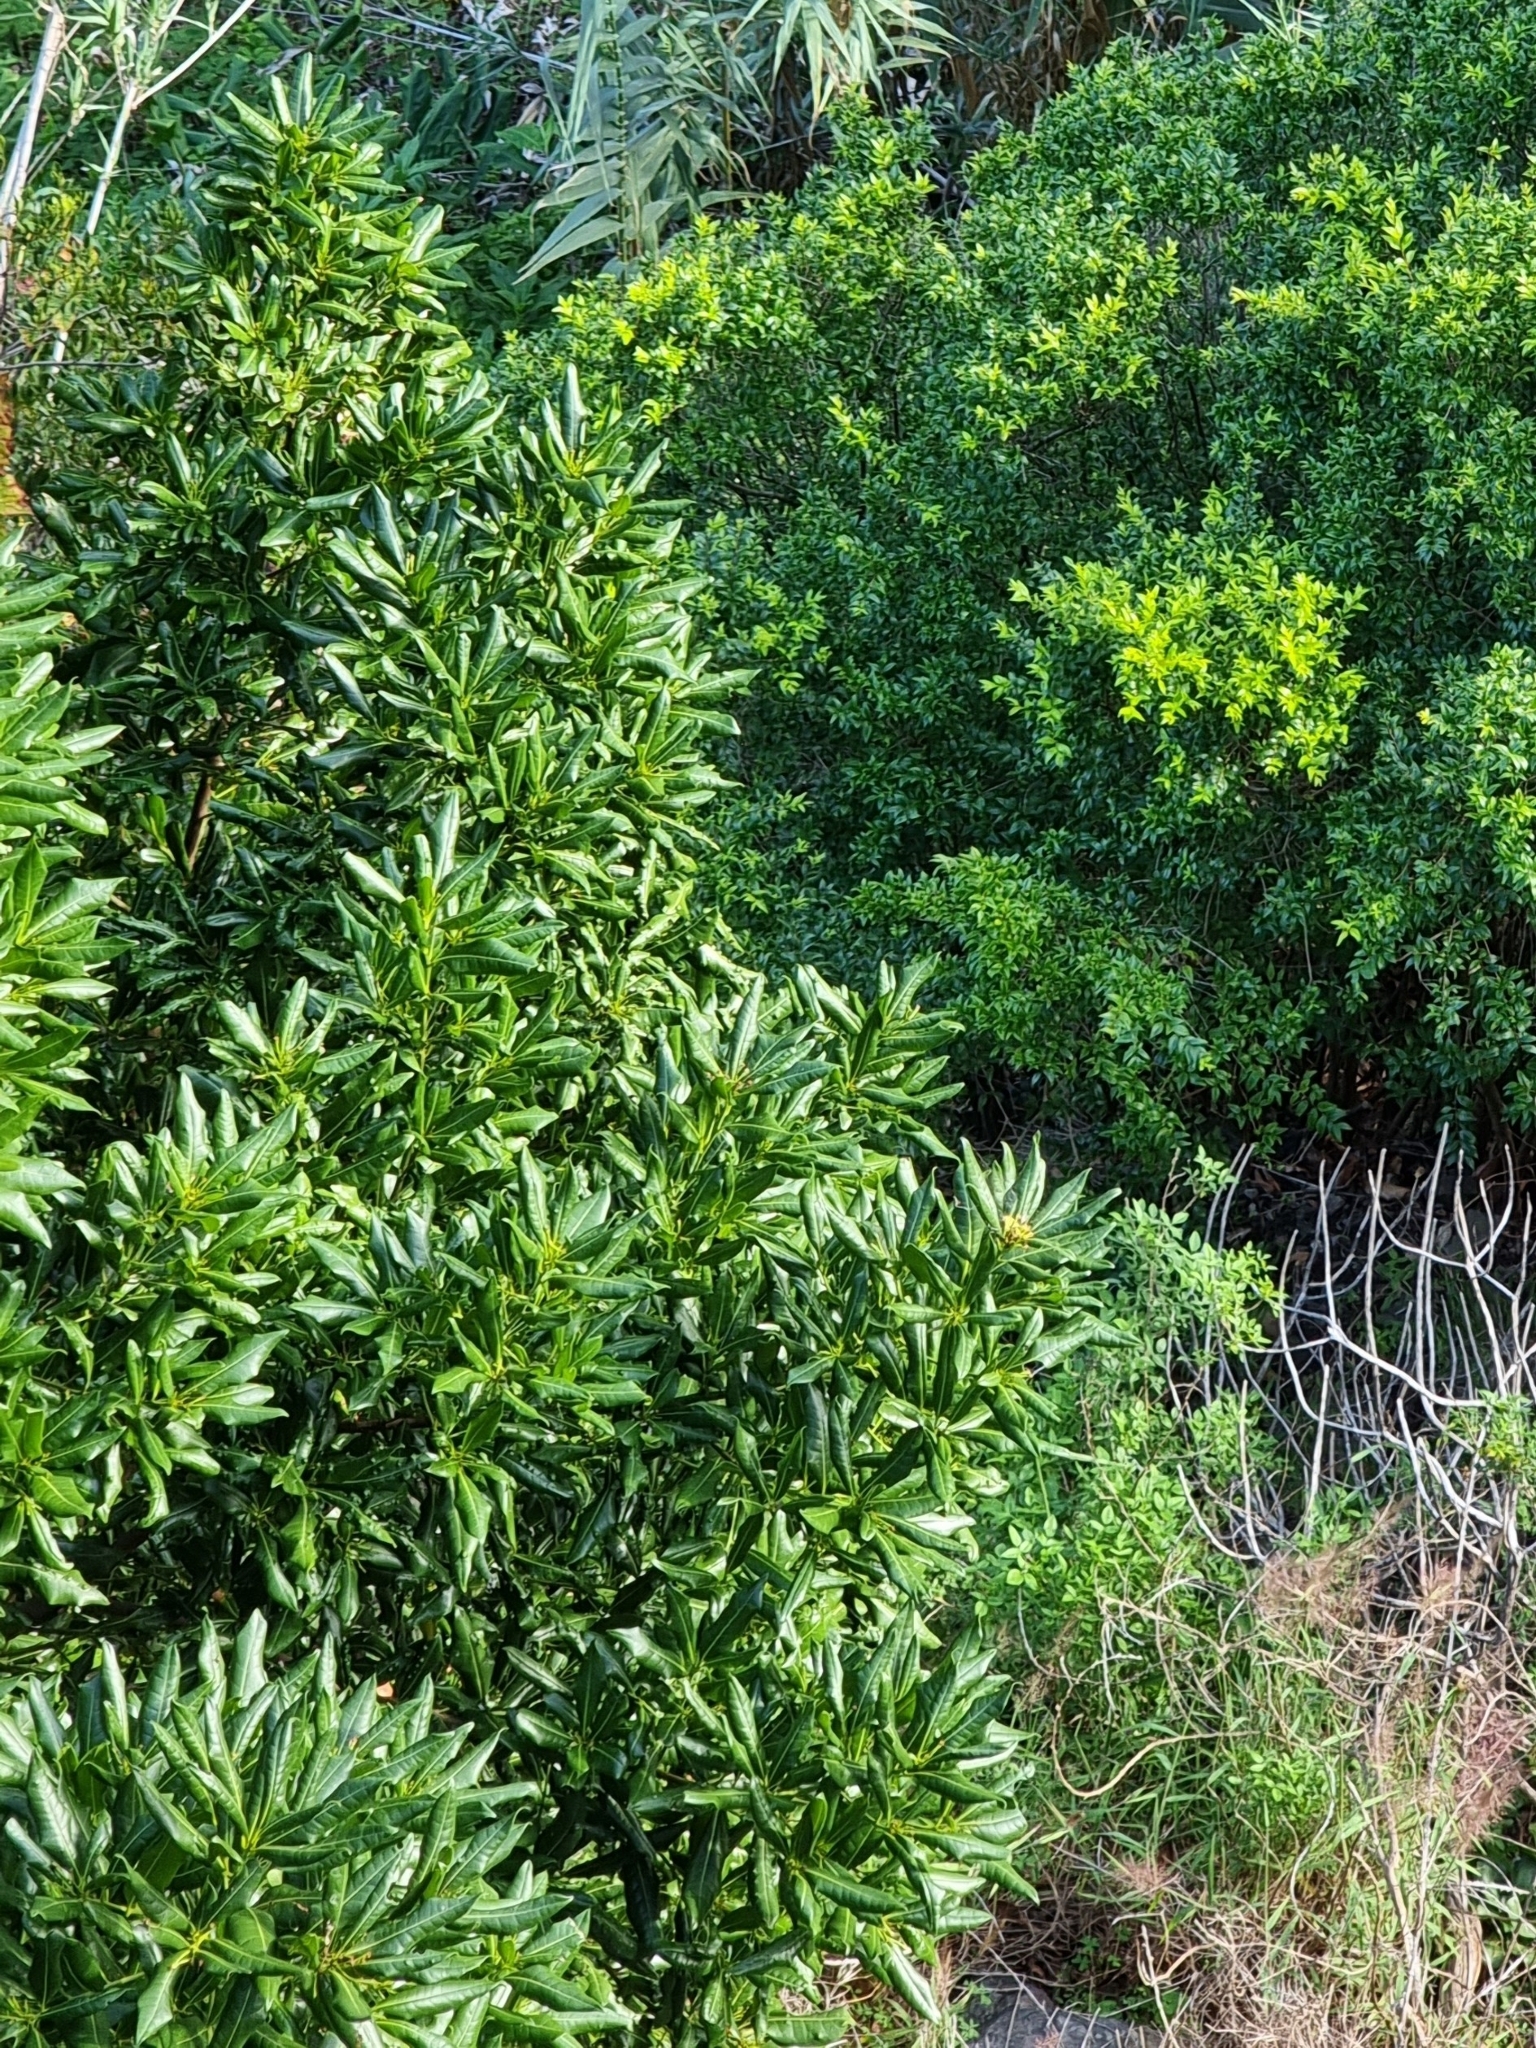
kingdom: Plantae
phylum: Tracheophyta
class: Magnoliopsida
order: Laurales
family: Lauraceae
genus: Apollonias
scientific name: Apollonias barbujana
